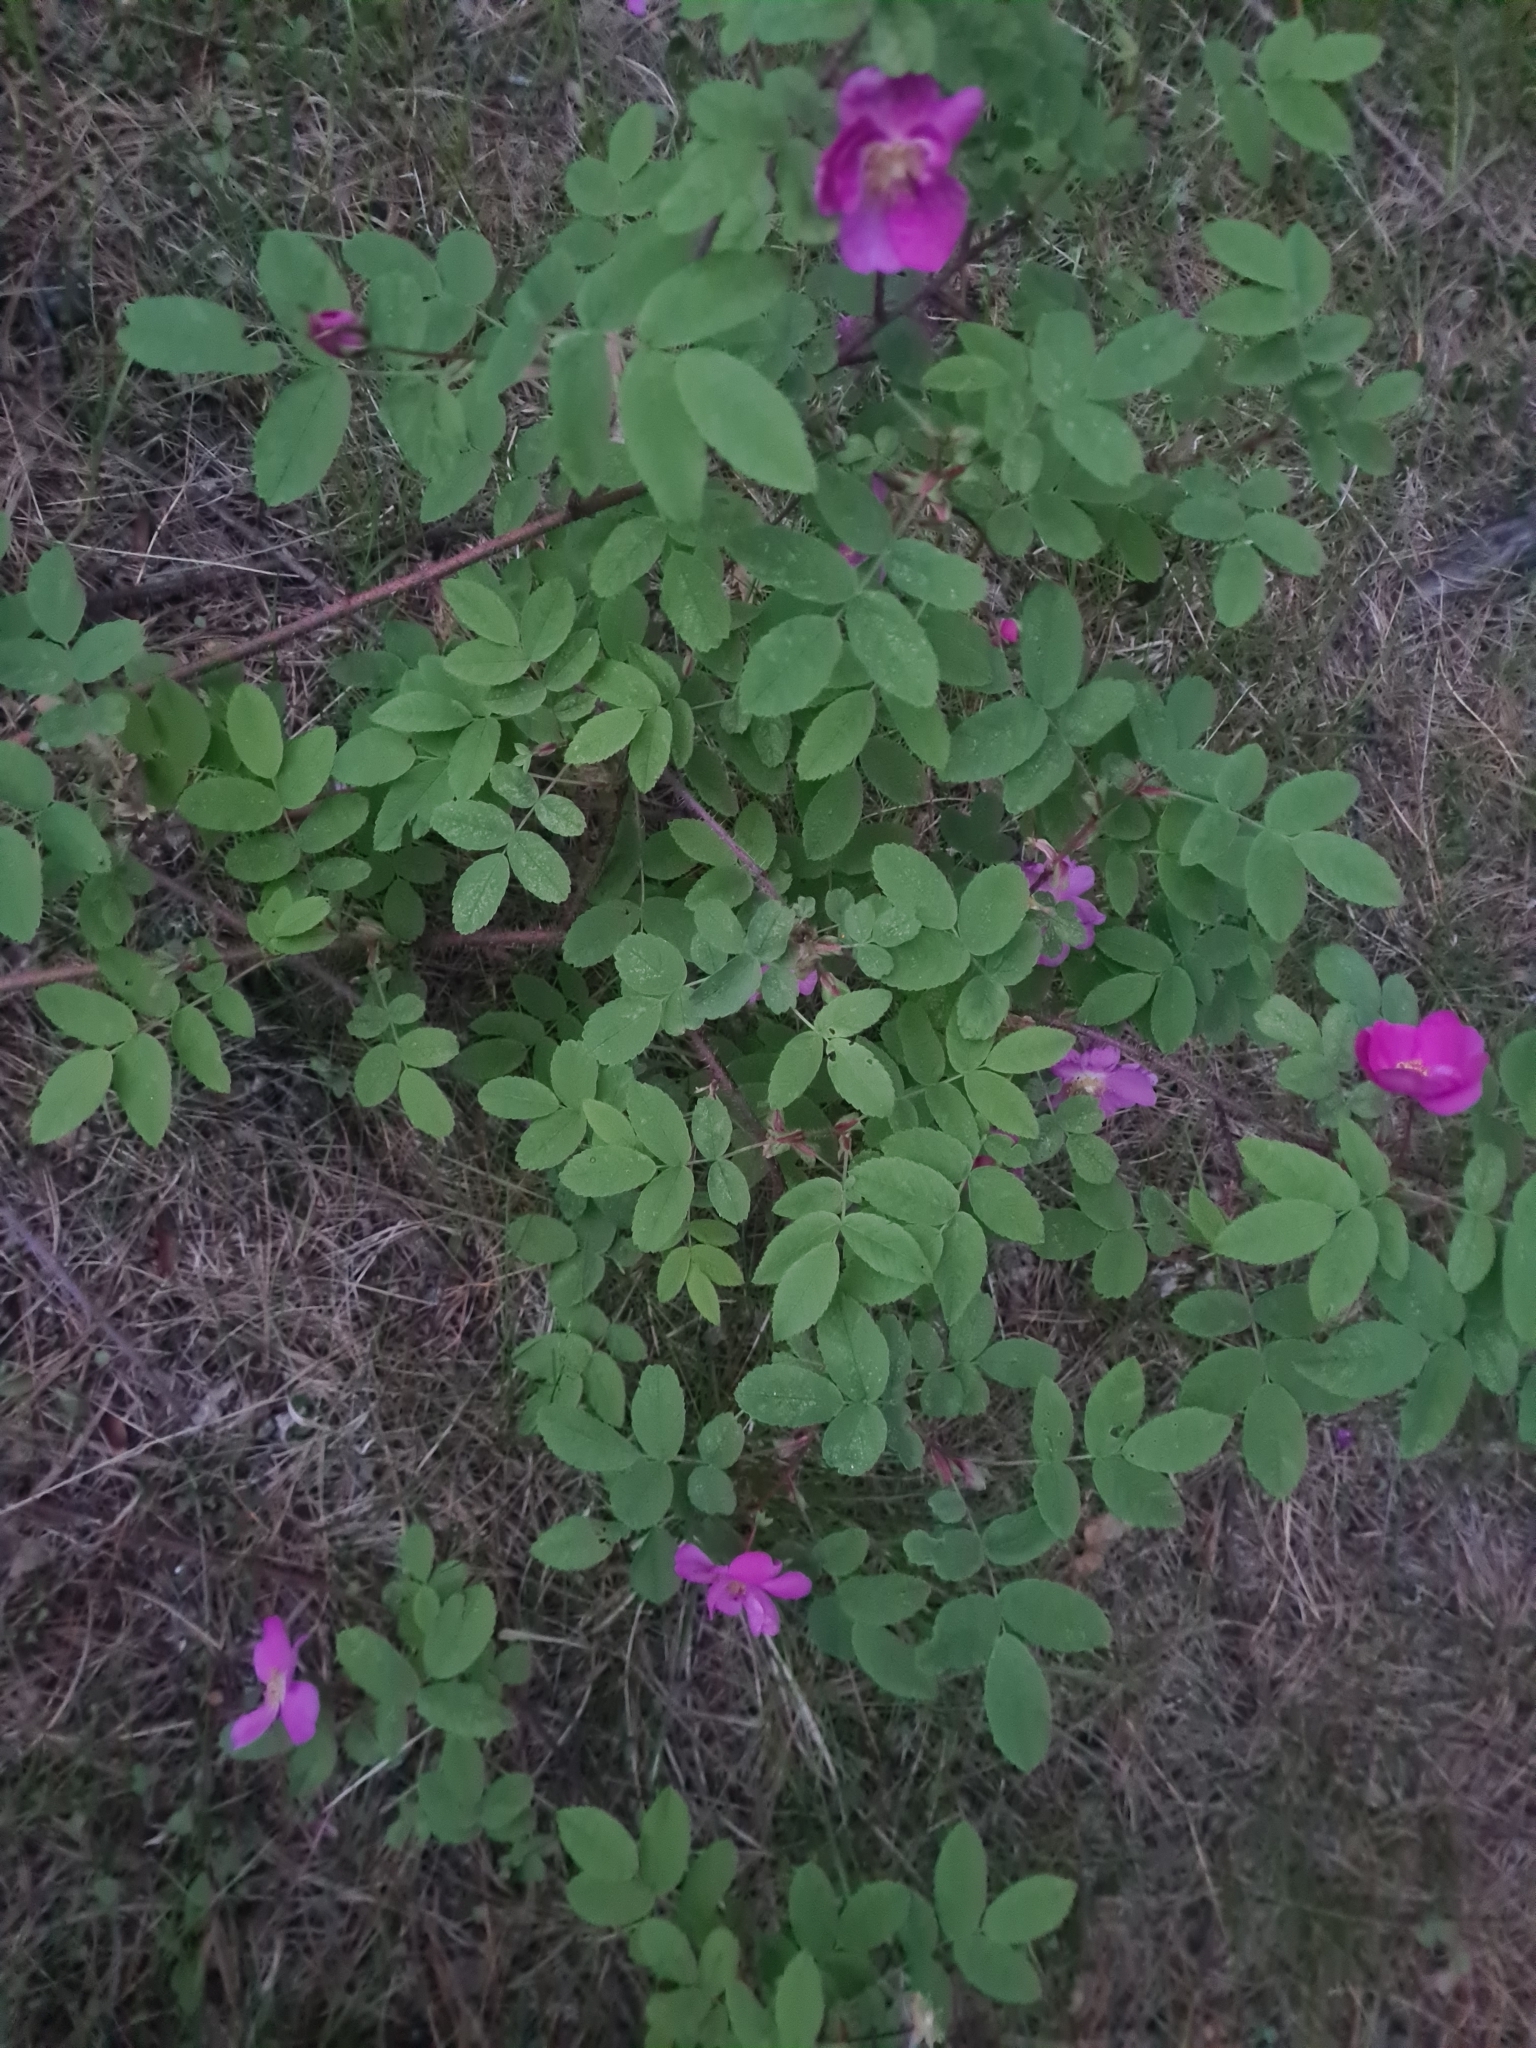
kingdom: Plantae
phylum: Tracheophyta
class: Magnoliopsida
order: Rosales
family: Rosaceae
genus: Rosa
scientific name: Rosa acicularis
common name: Prickly rose
